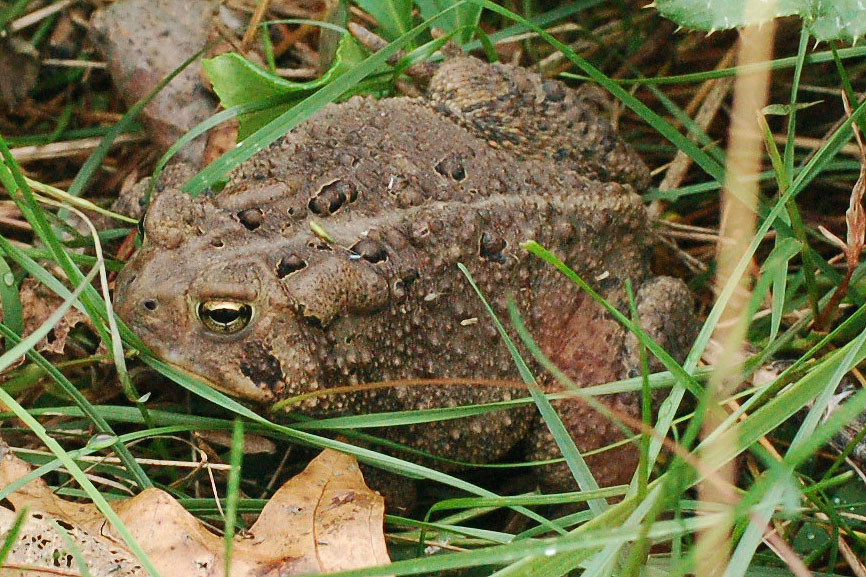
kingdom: Animalia
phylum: Chordata
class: Amphibia
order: Anura
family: Bufonidae
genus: Anaxyrus
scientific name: Anaxyrus americanus
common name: American toad
